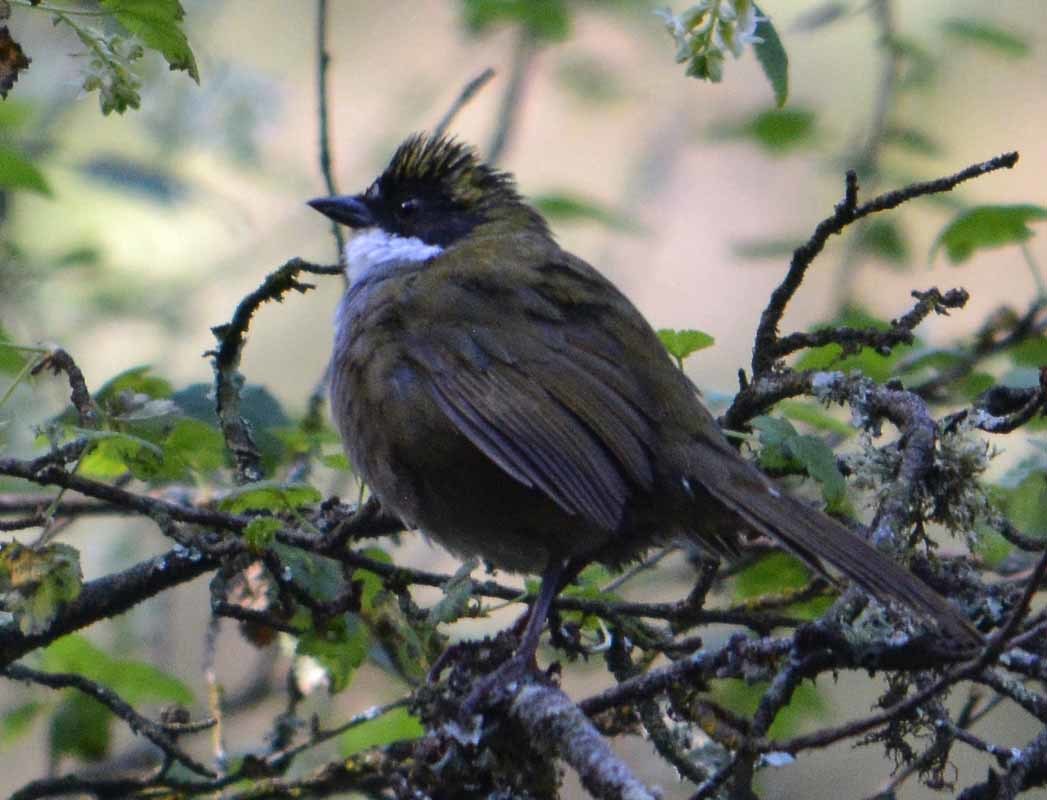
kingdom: Animalia
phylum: Chordata
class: Aves
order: Passeriformes
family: Passerellidae
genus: Arremon
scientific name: Arremon virenticeps
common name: Green-striped brushfinch
